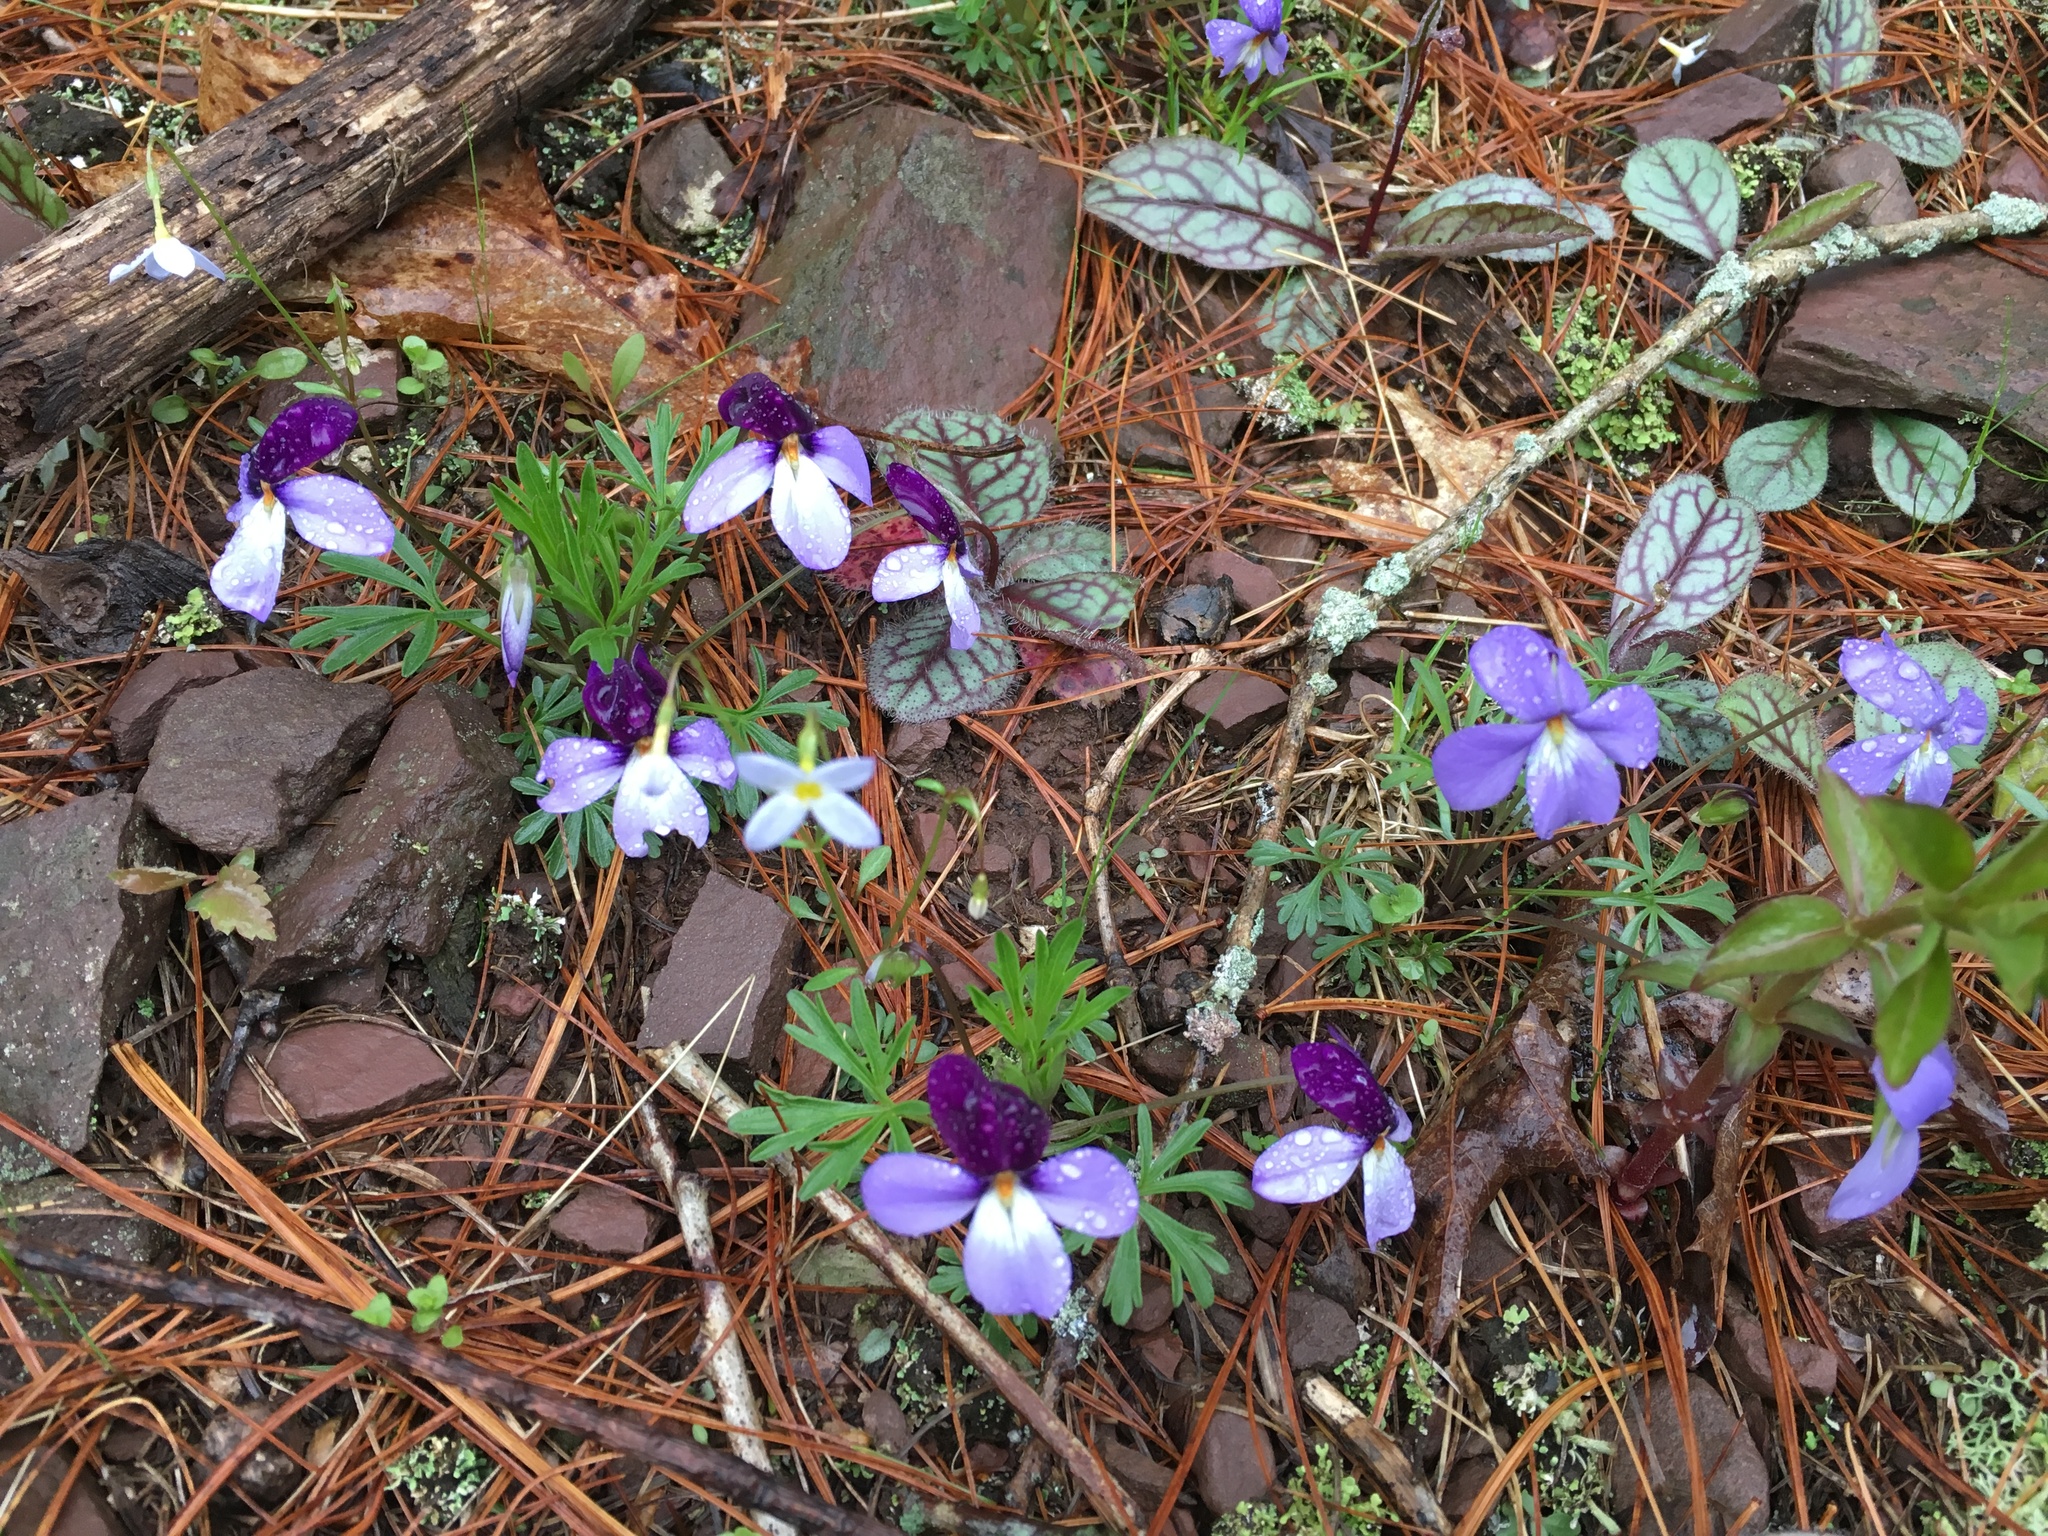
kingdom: Plantae
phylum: Tracheophyta
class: Magnoliopsida
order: Malpighiales
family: Violaceae
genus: Viola
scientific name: Viola pedata
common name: Pansy violet
